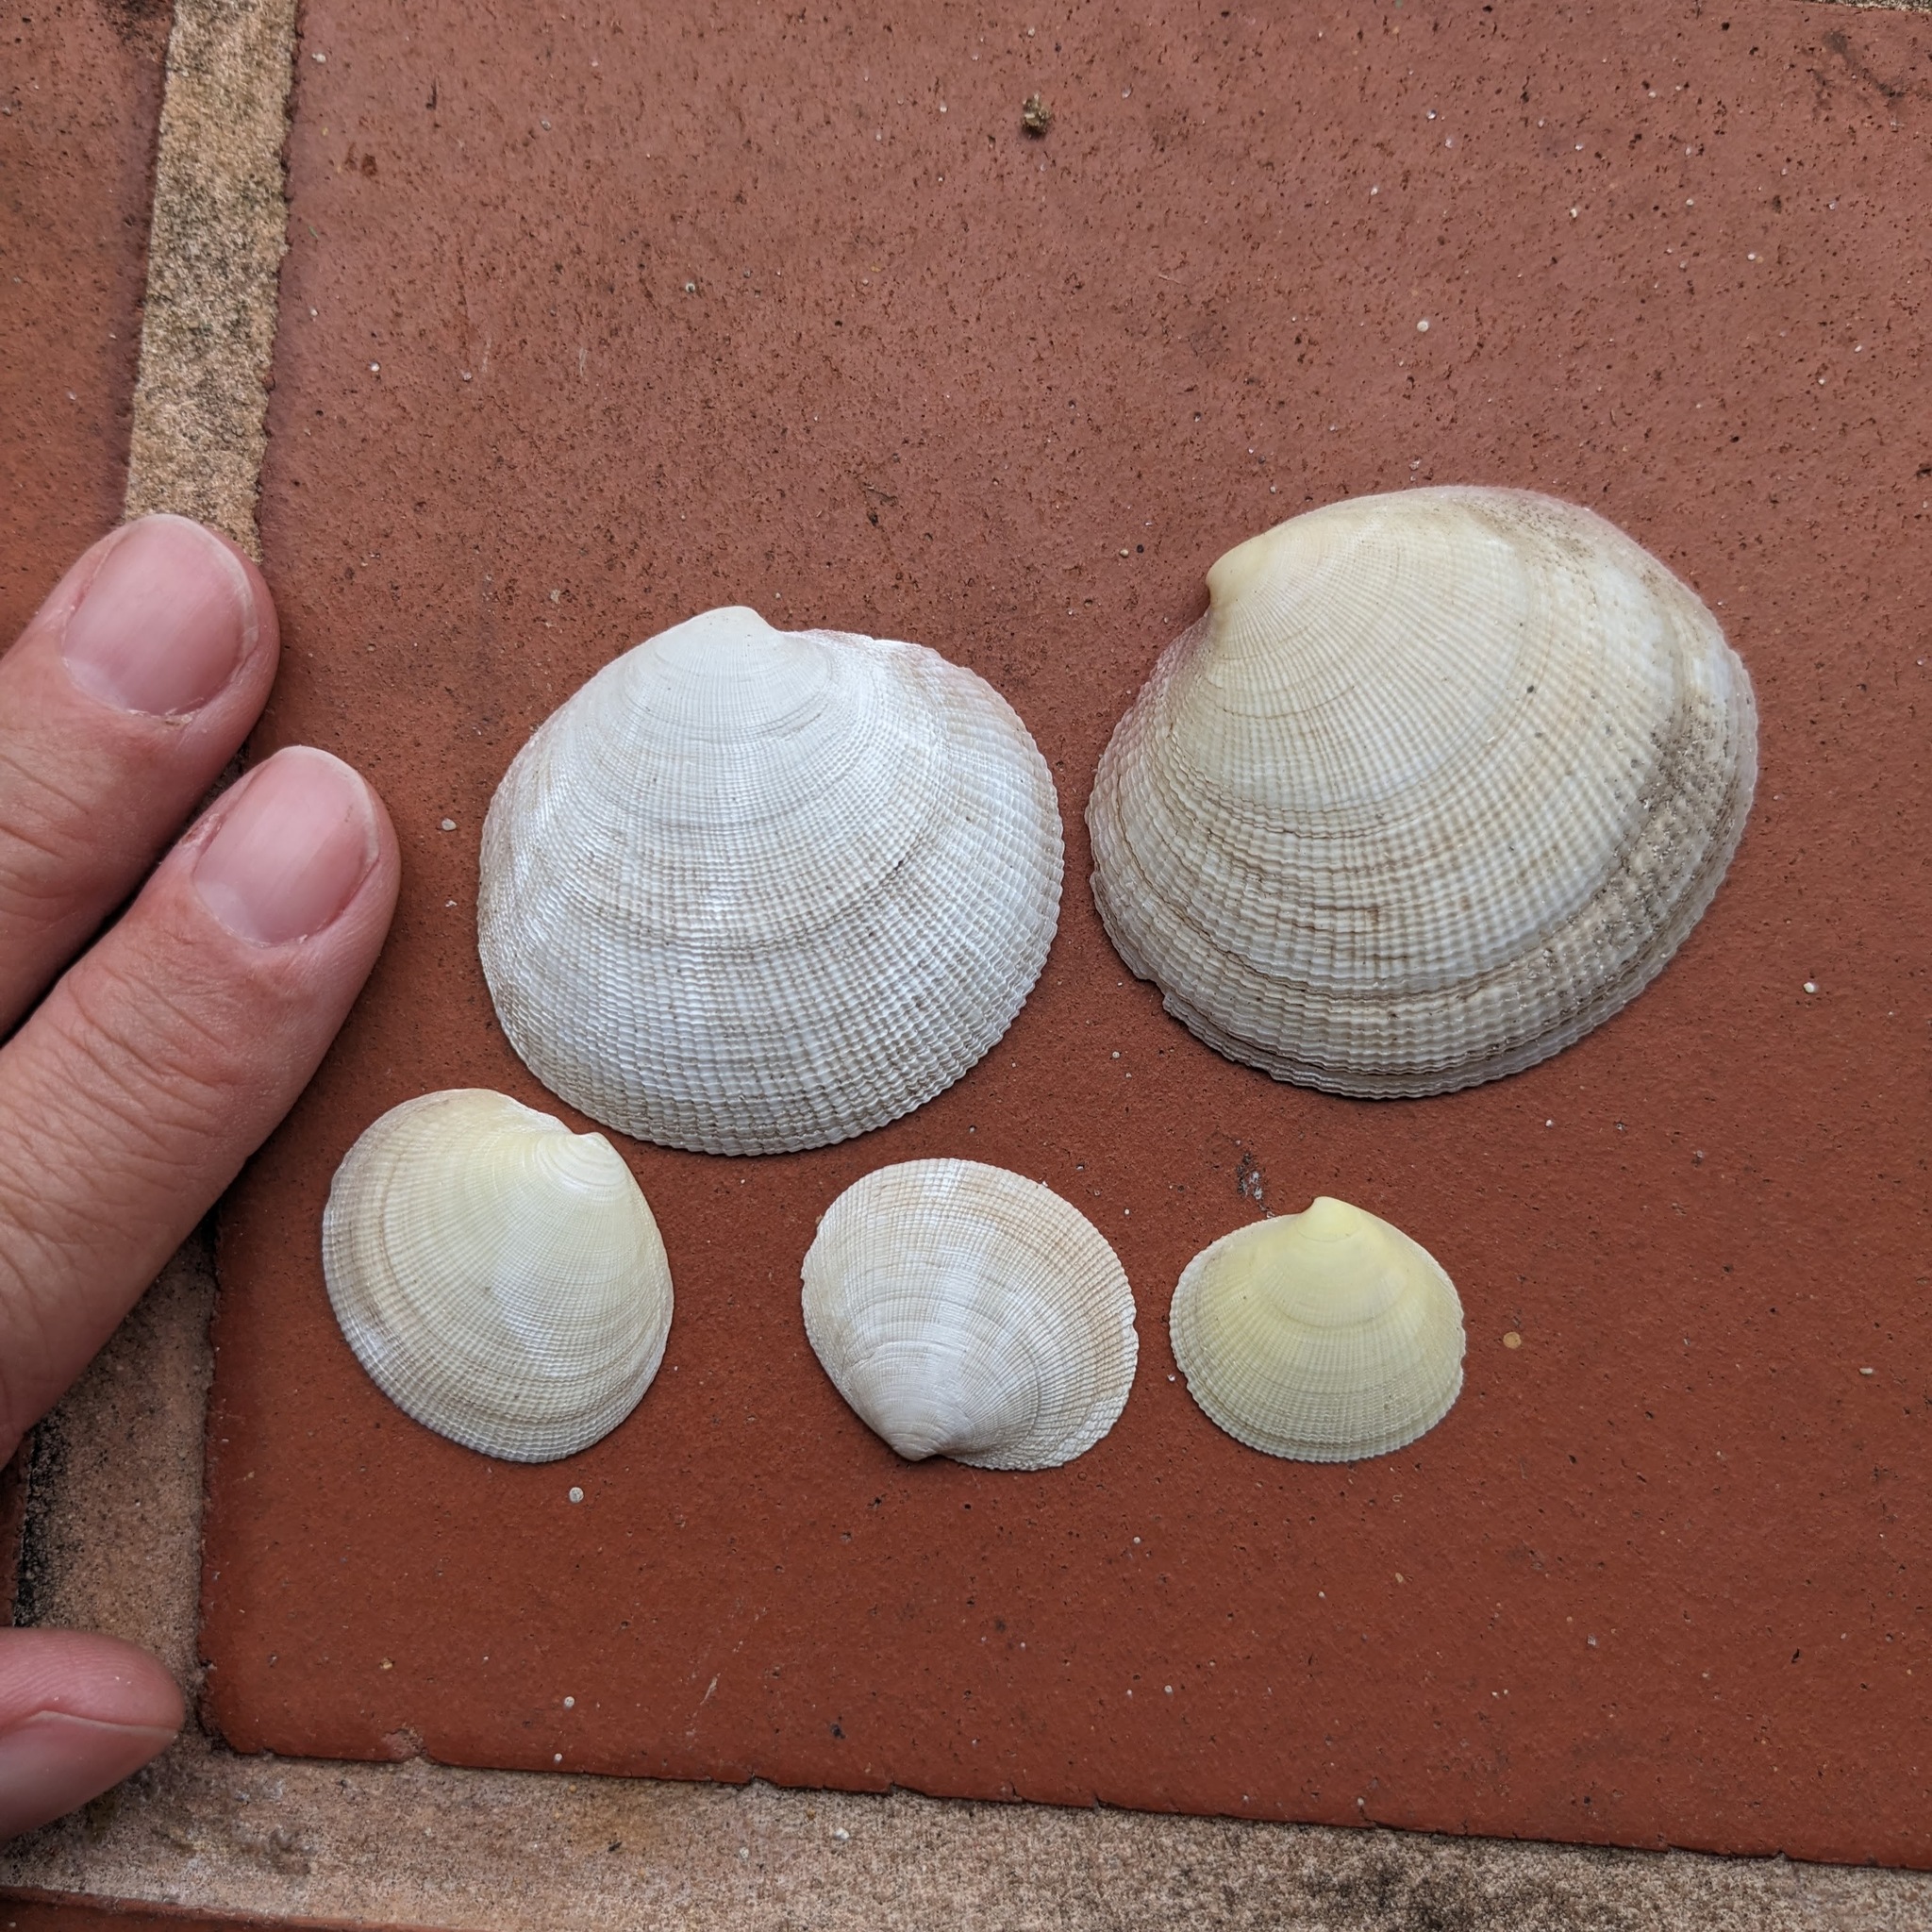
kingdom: Animalia
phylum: Mollusca
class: Bivalvia
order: Lucinida
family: Lucinidae
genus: Codakia
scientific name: Codakia orbicularis
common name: Tiger lucine
